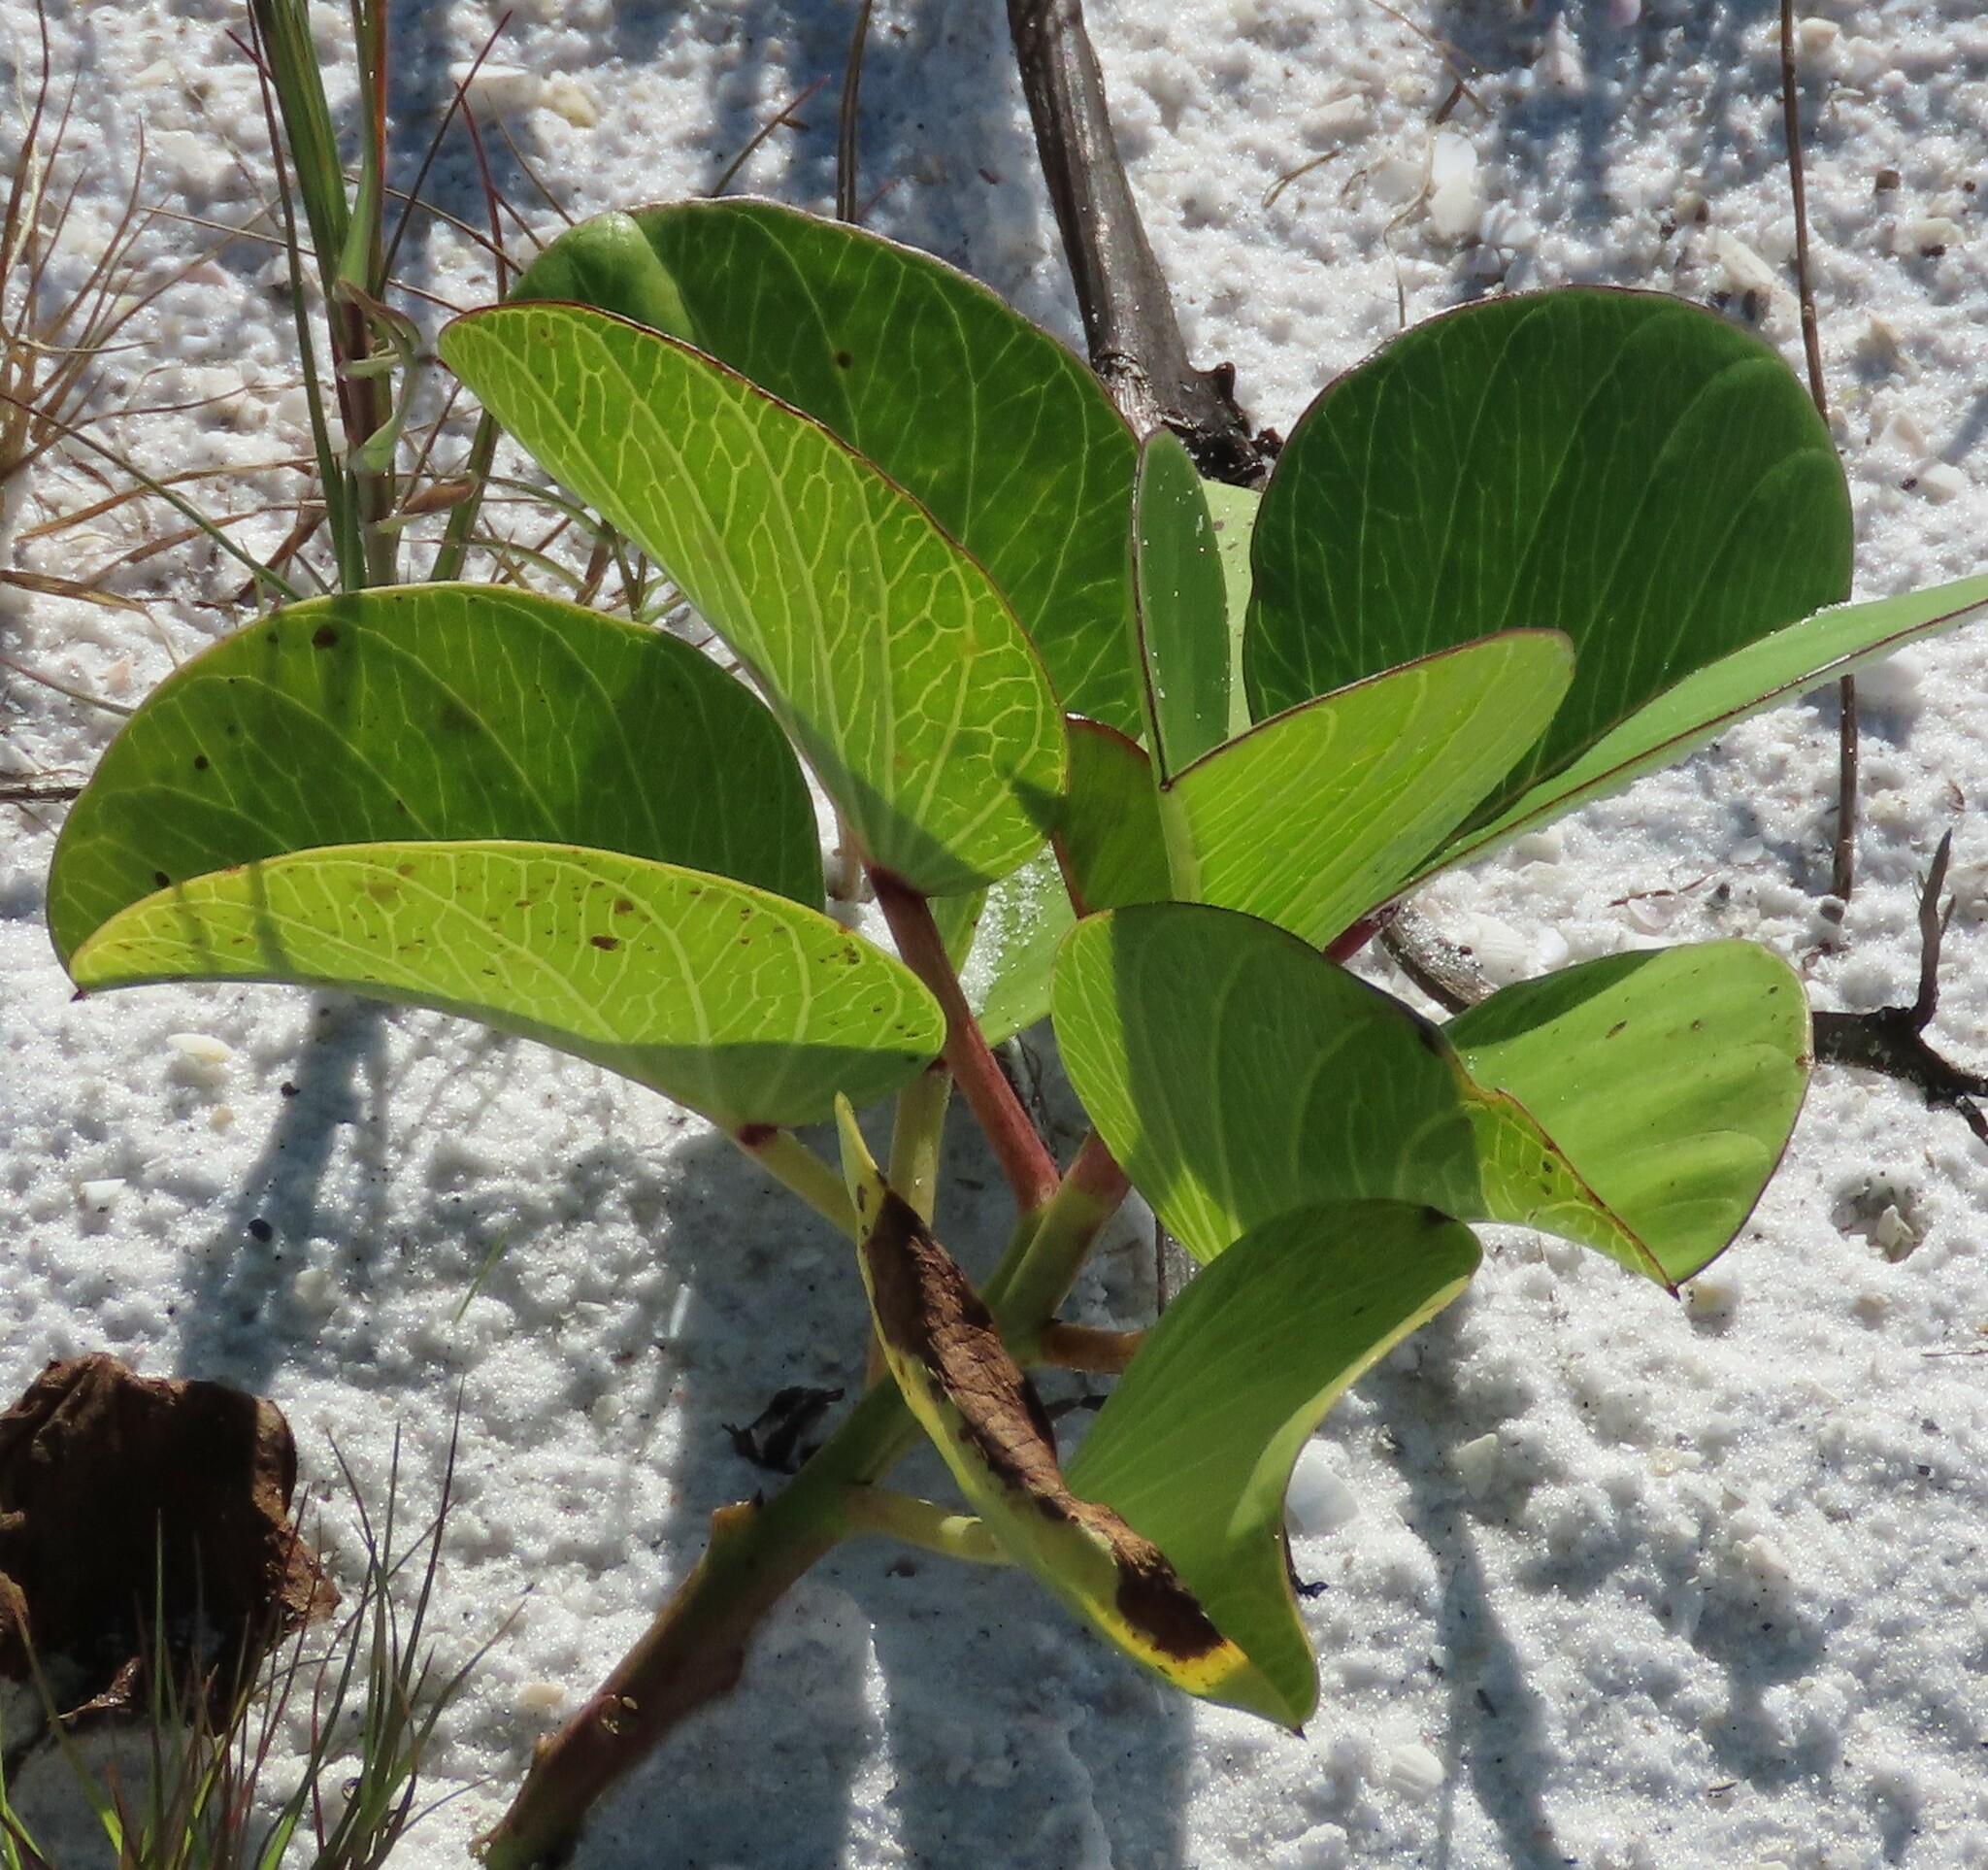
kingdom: Plantae
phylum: Tracheophyta
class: Magnoliopsida
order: Solanales
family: Convolvulaceae
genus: Ipomoea
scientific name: Ipomoea pes-caprae
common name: Beach morning glory
